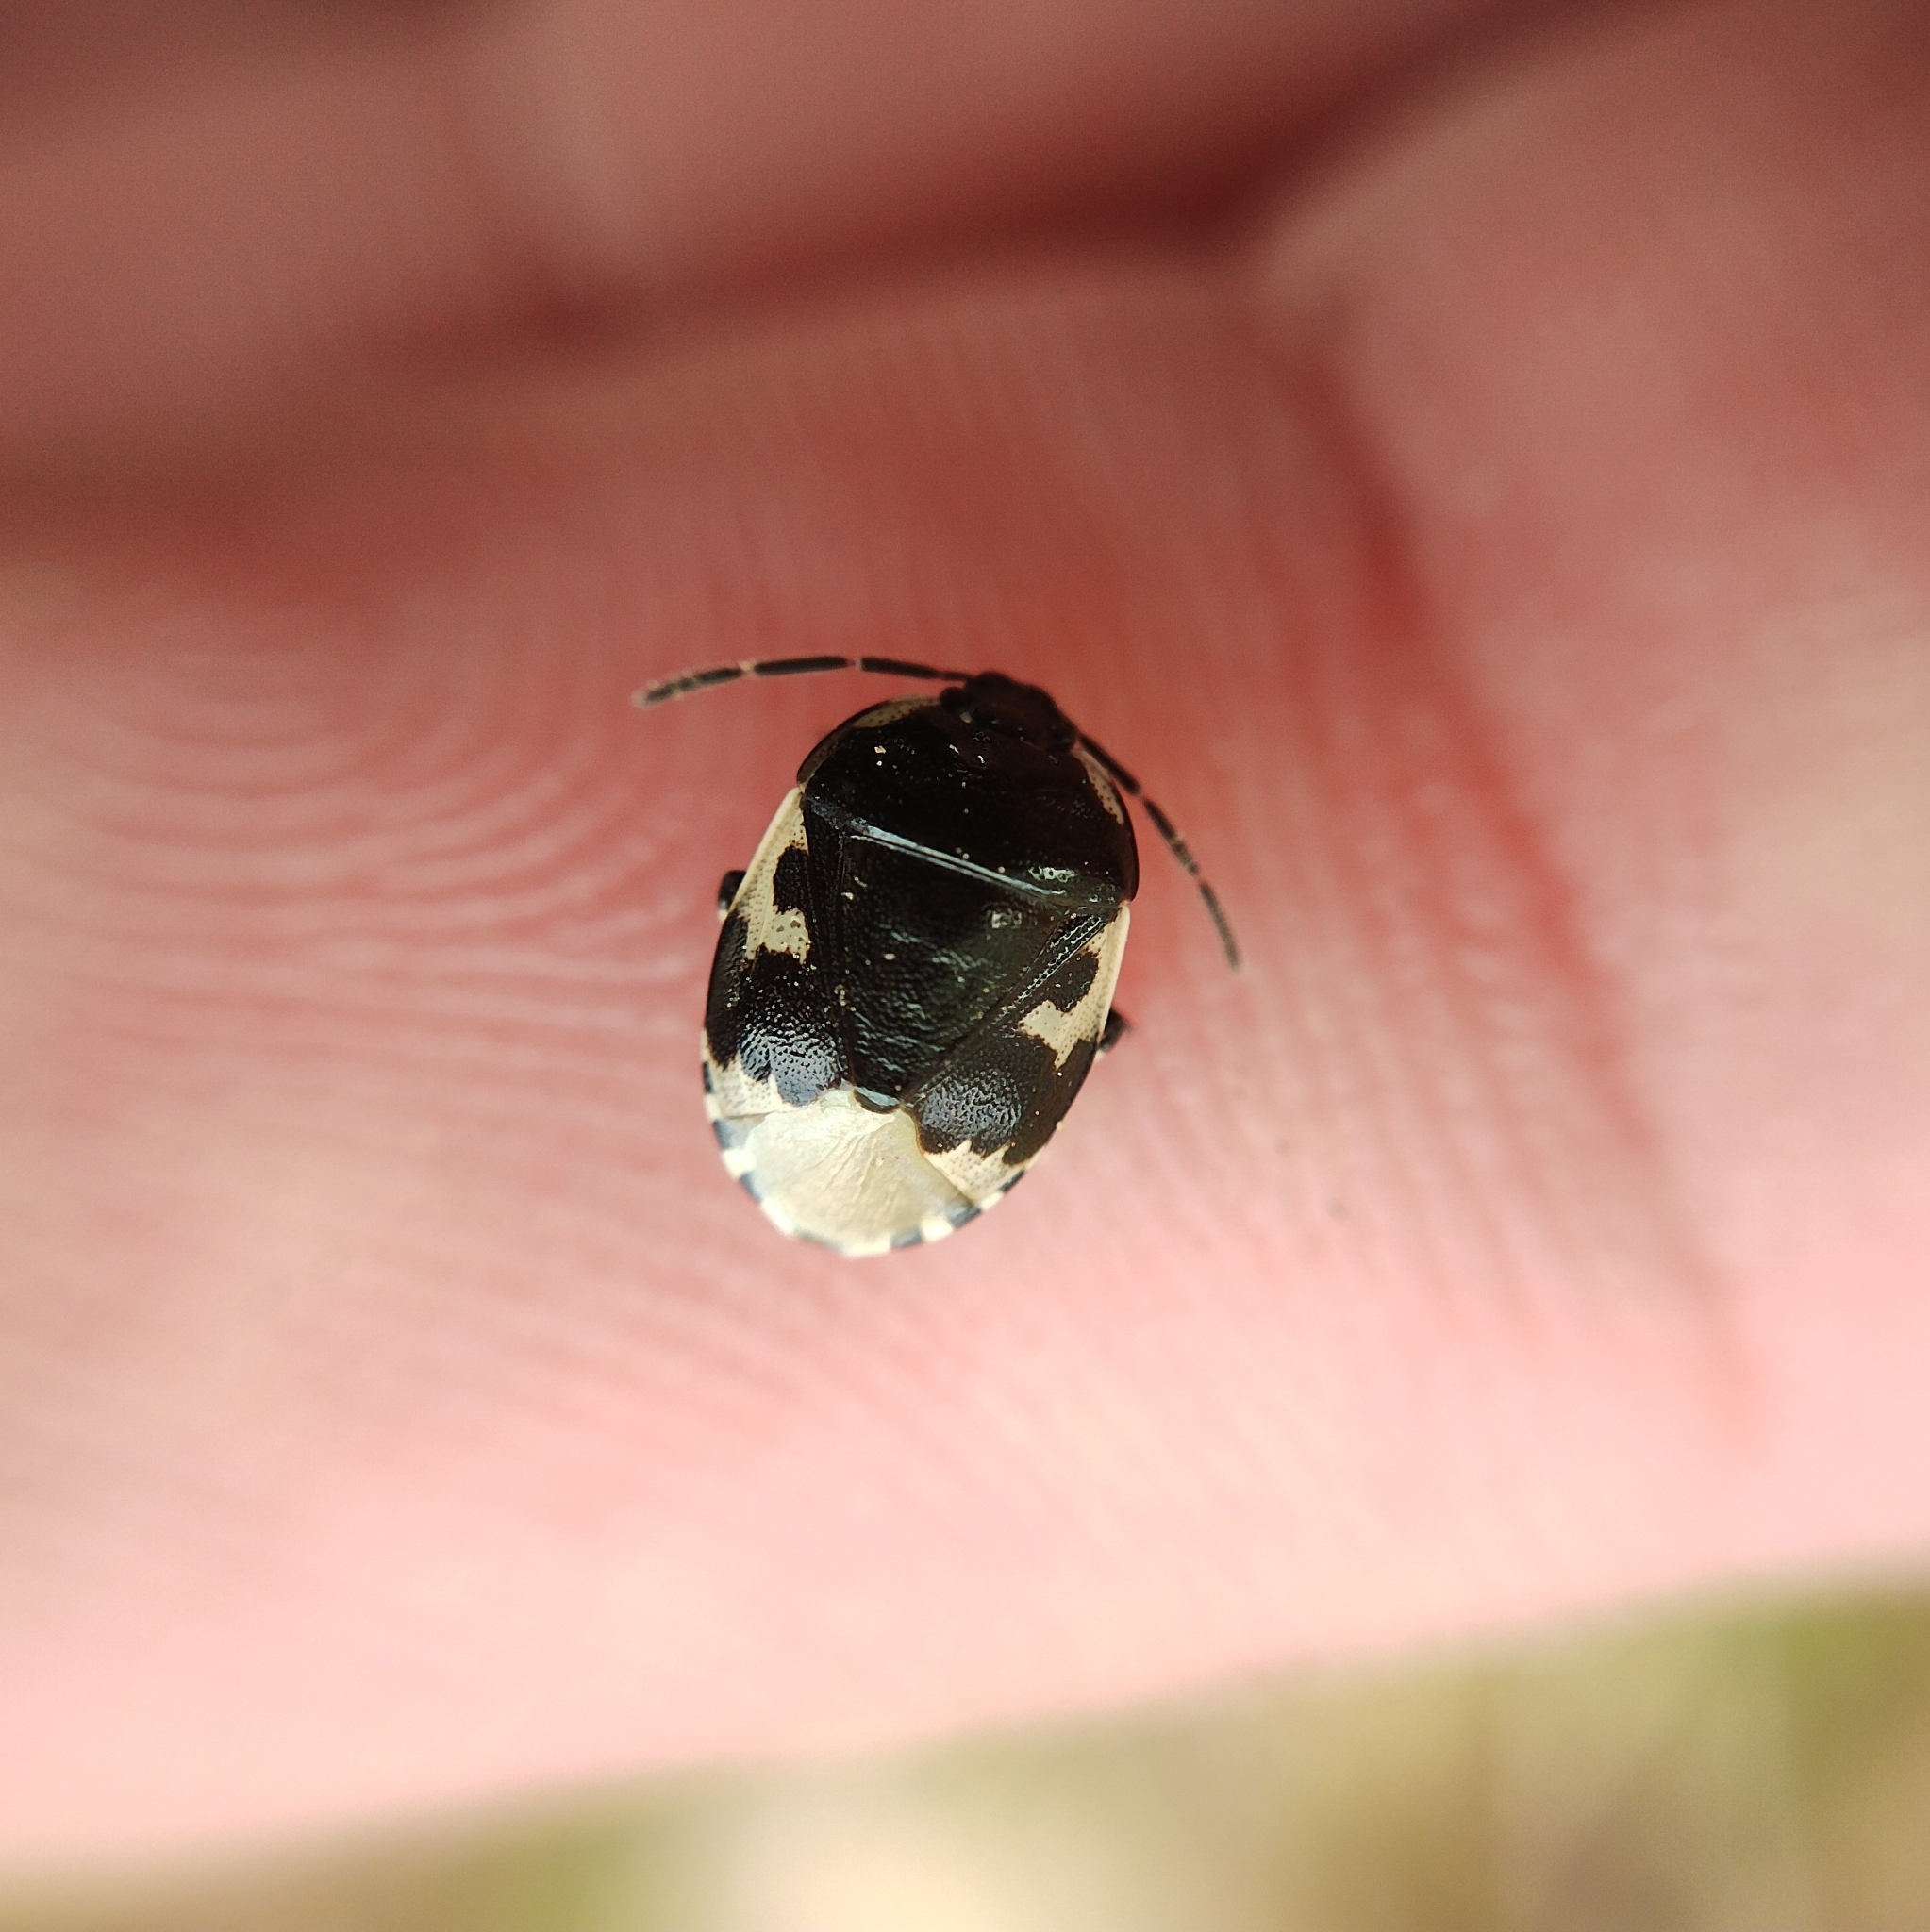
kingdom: Animalia
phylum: Arthropoda
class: Insecta
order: Hemiptera
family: Cydnidae
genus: Tritomegas
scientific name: Tritomegas bicolor
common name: Pied shieldbug
